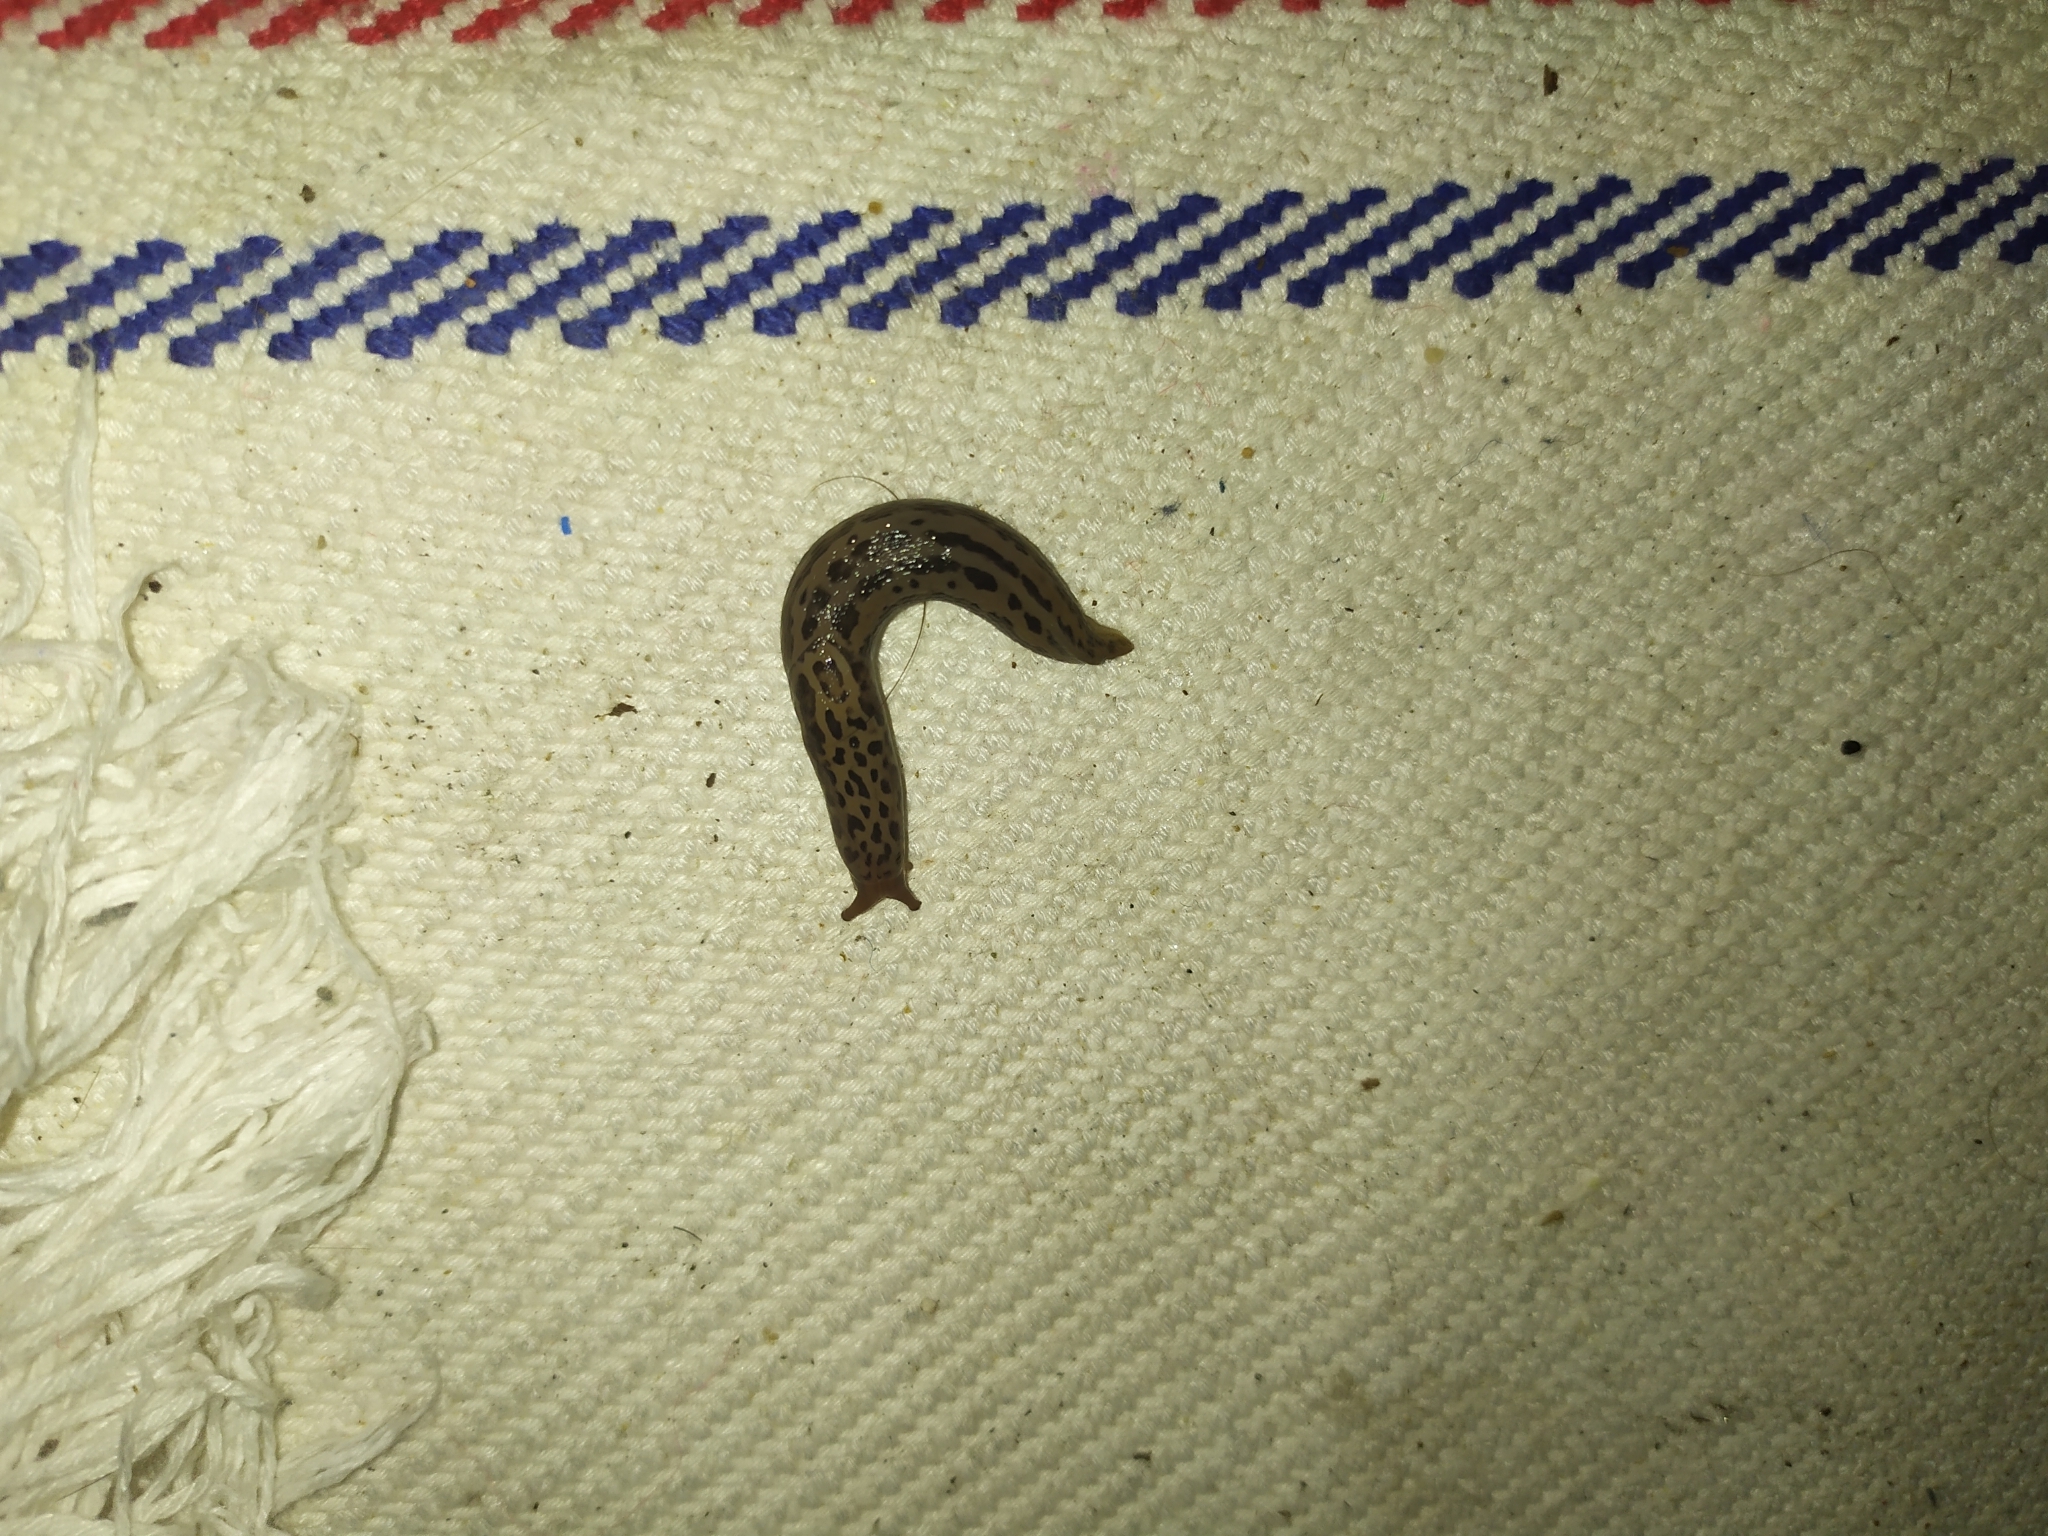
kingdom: Animalia
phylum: Mollusca
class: Gastropoda
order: Stylommatophora
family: Limacidae
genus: Limax
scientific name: Limax maximus
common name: Great grey slug
